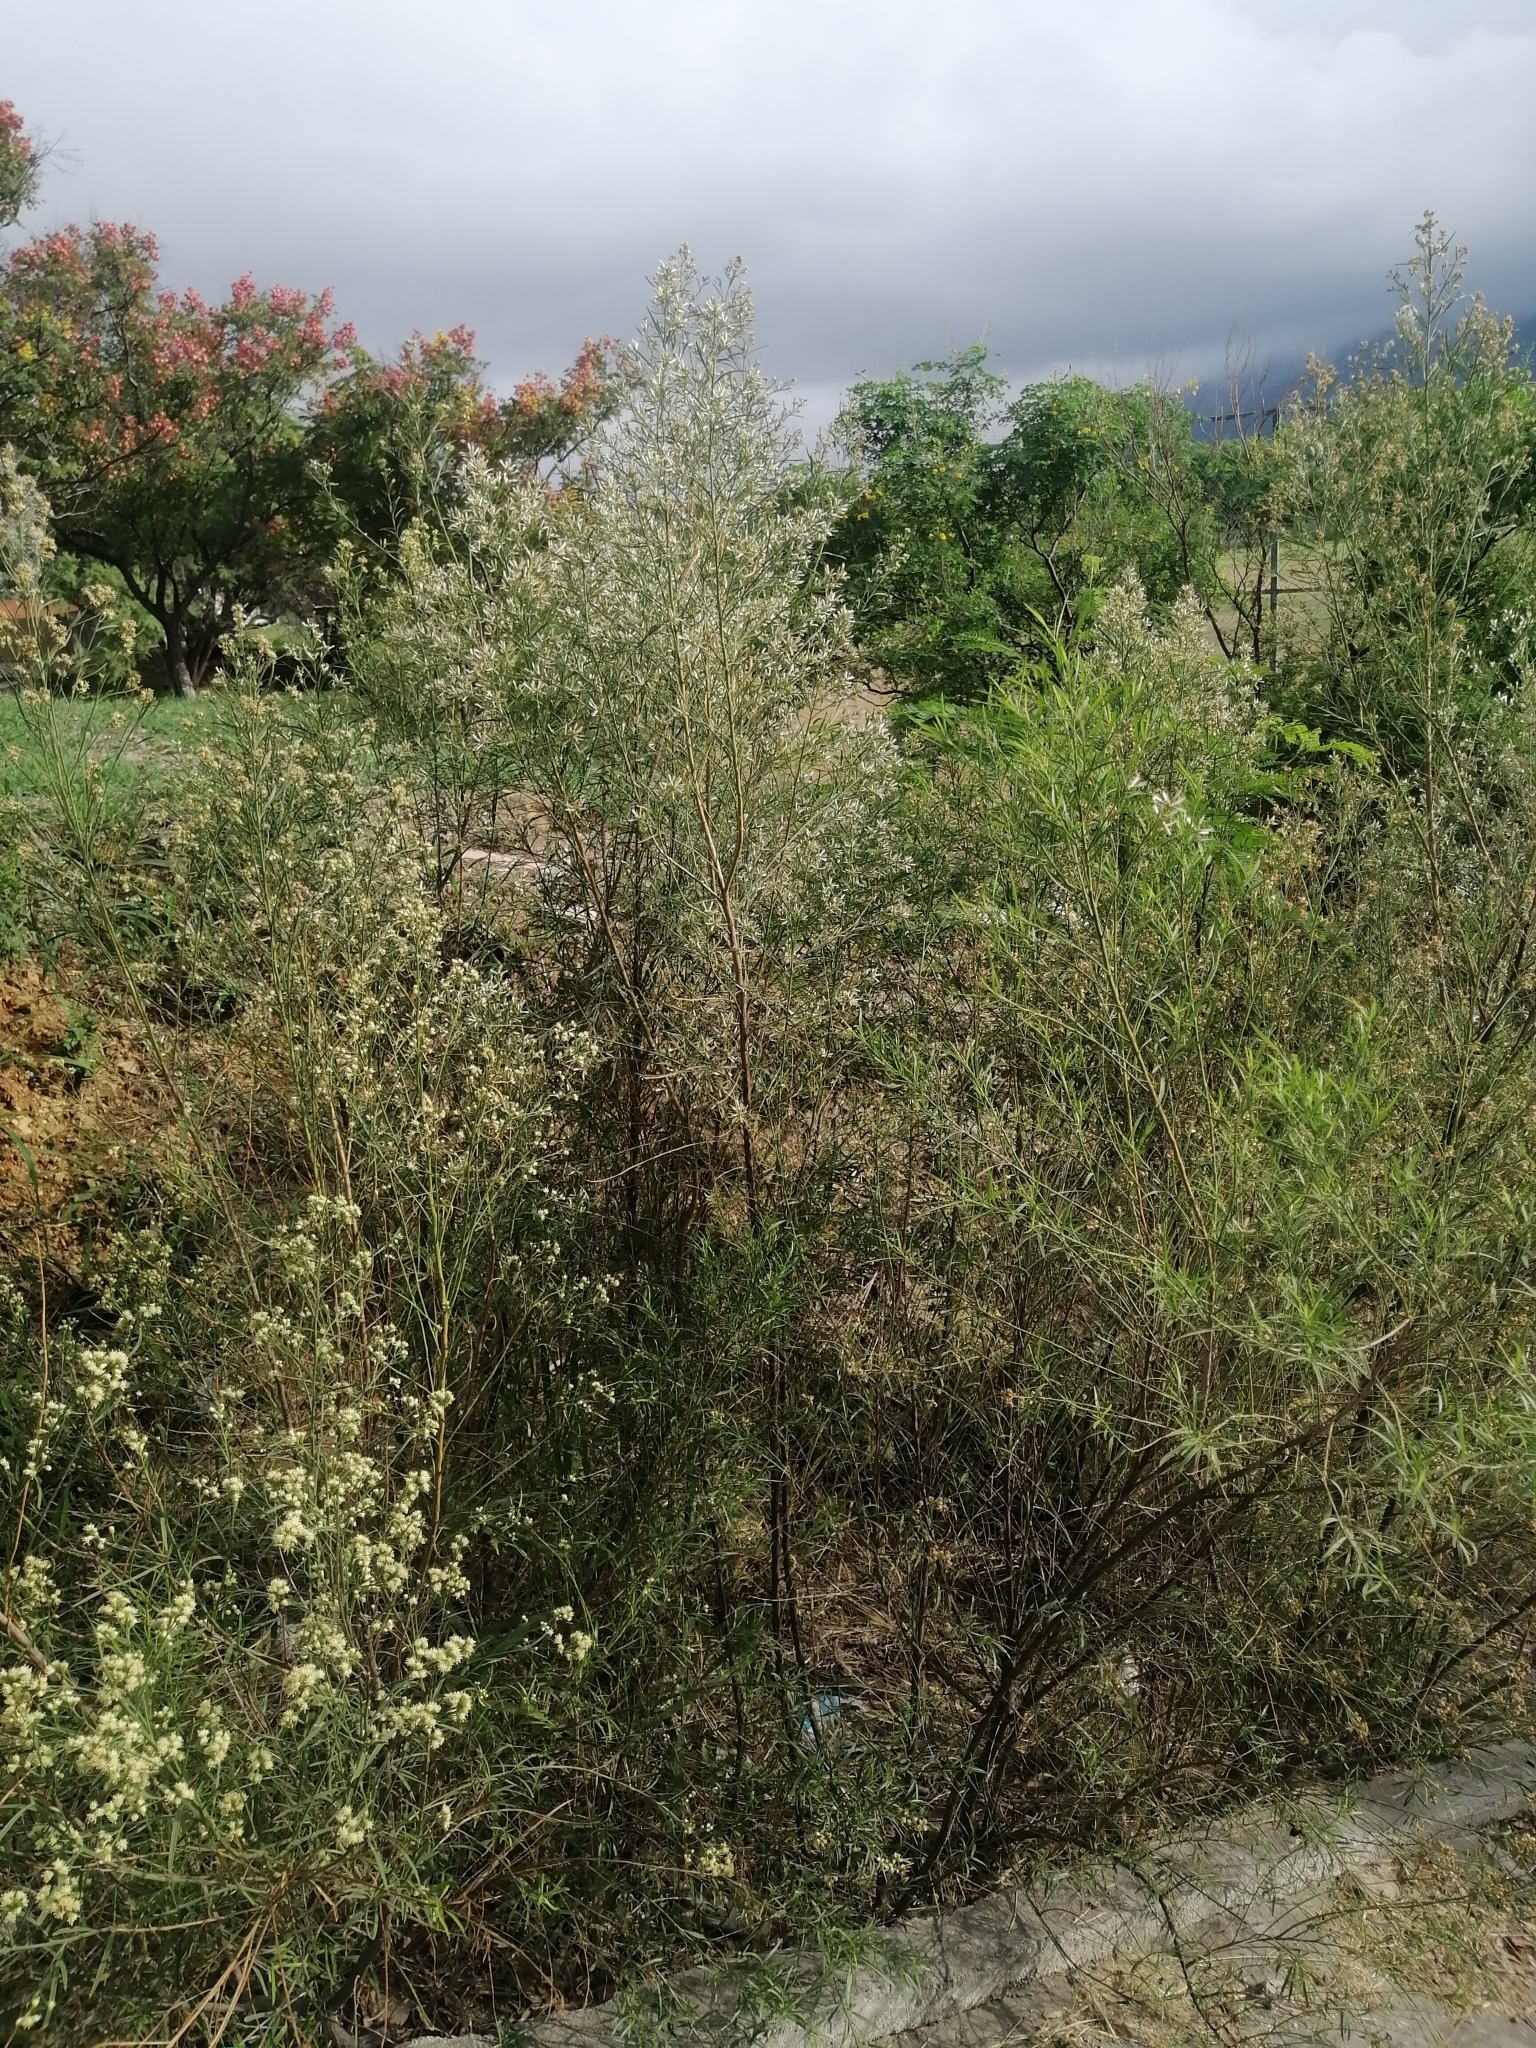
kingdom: Plantae
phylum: Tracheophyta
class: Magnoliopsida
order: Asterales
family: Asteraceae
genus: Baccharis
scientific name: Baccharis neglecta
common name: Roosevelt-weed
